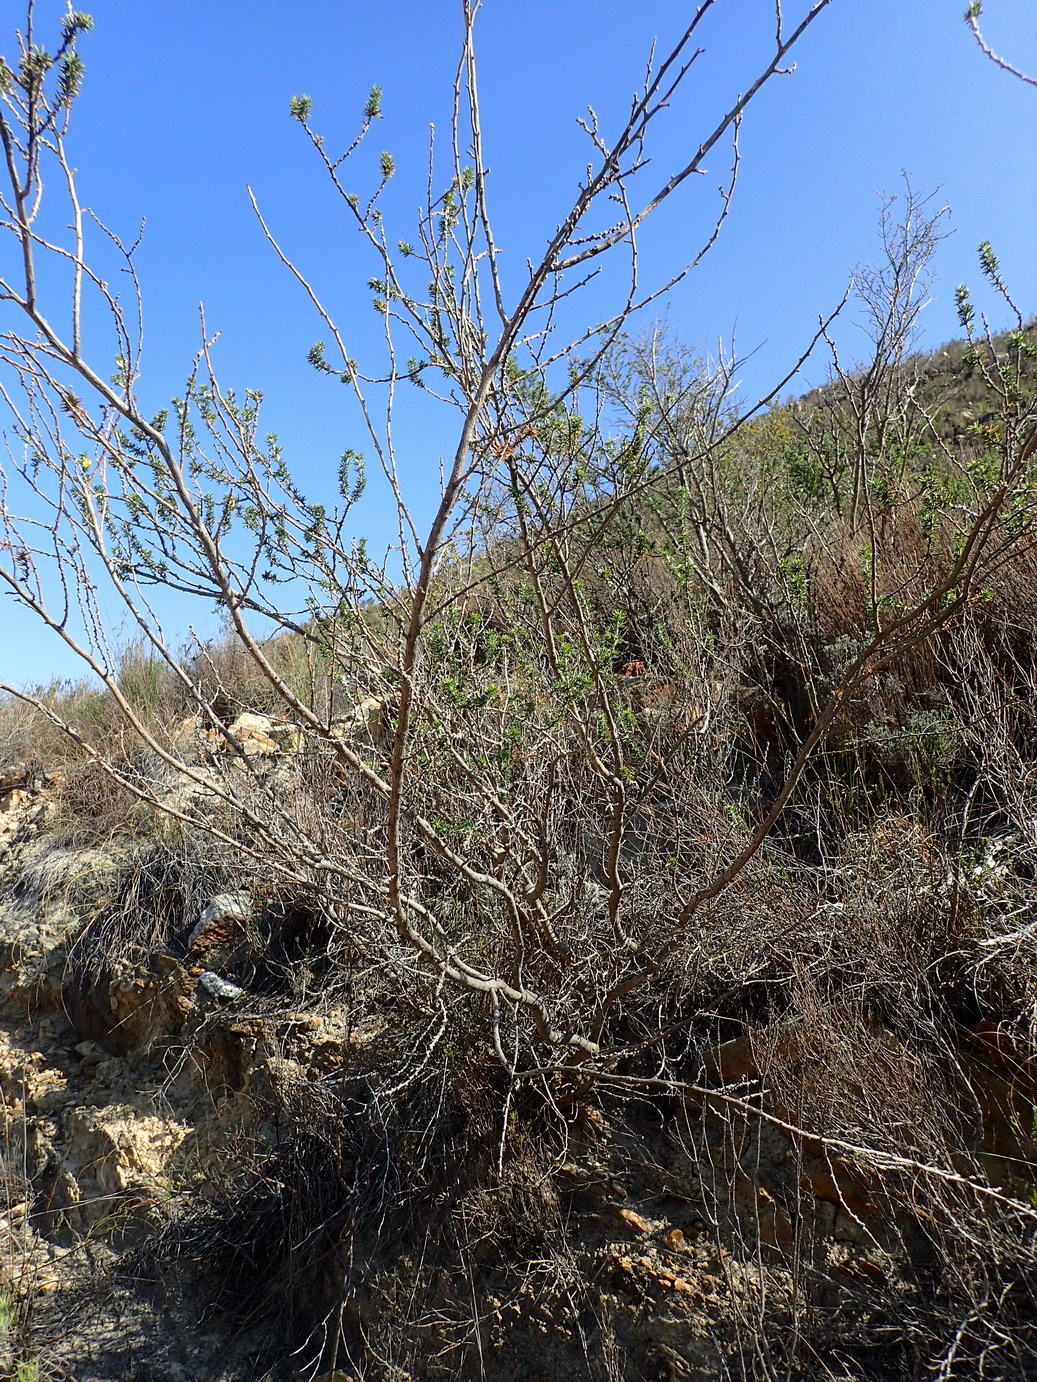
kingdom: Plantae
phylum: Tracheophyta
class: Magnoliopsida
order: Fabales
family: Fabaceae
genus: Aspalathus
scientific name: Aspalathus hirta
